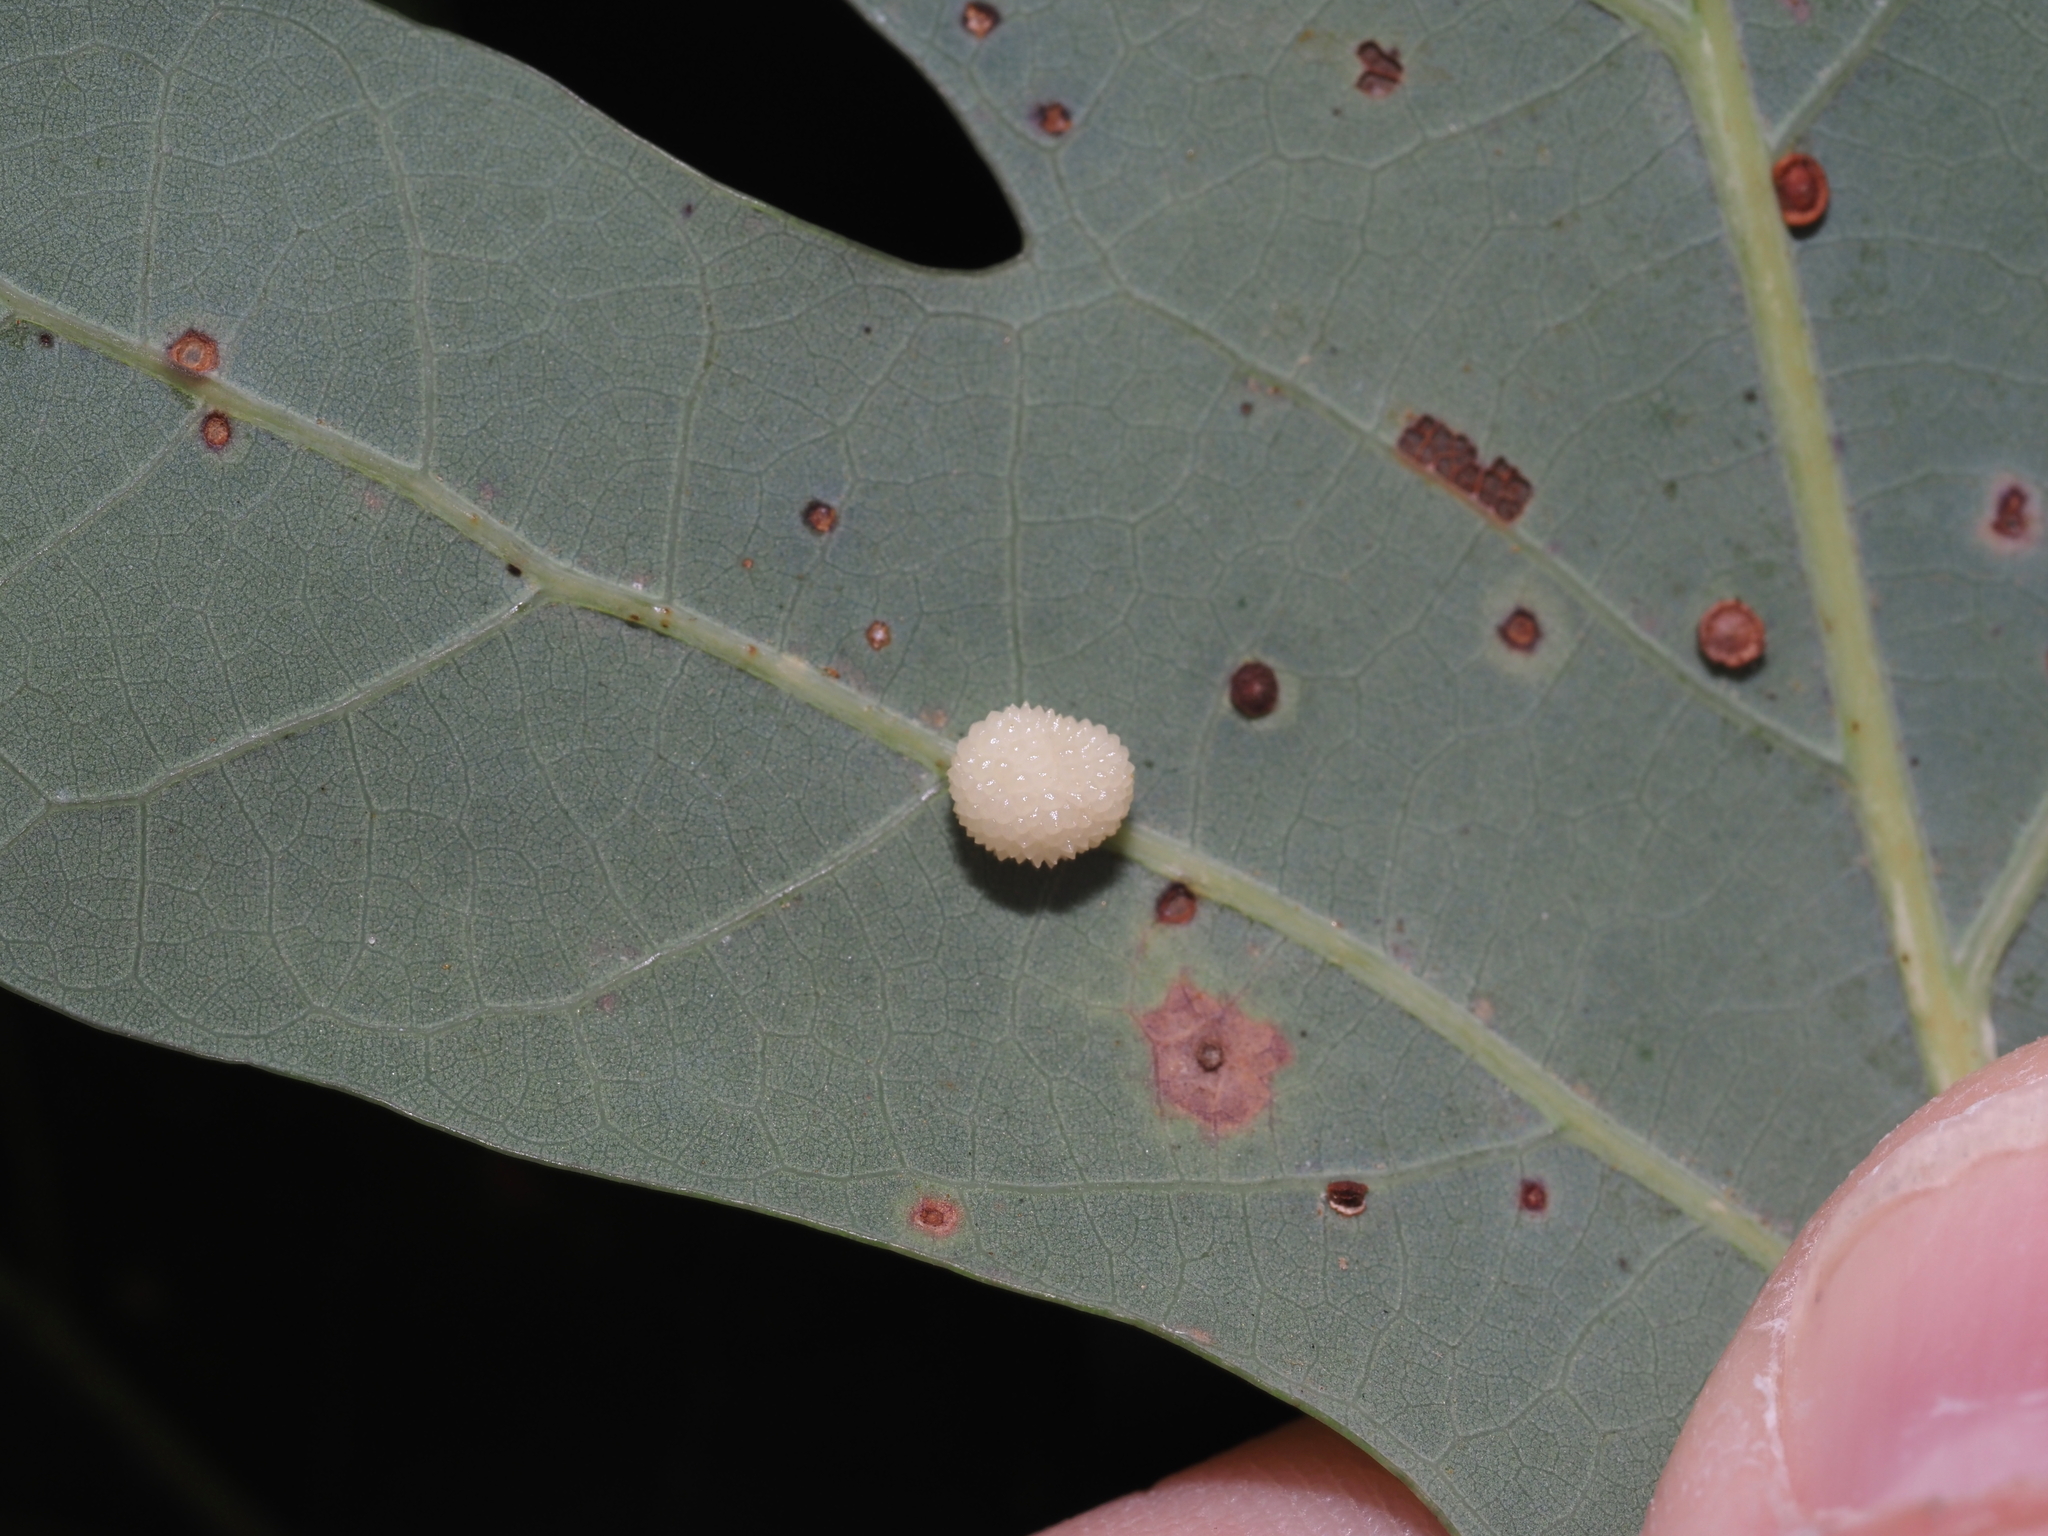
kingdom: Animalia
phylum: Arthropoda
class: Insecta
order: Hymenoptera
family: Cynipidae
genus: Acraspis
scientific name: Acraspis
